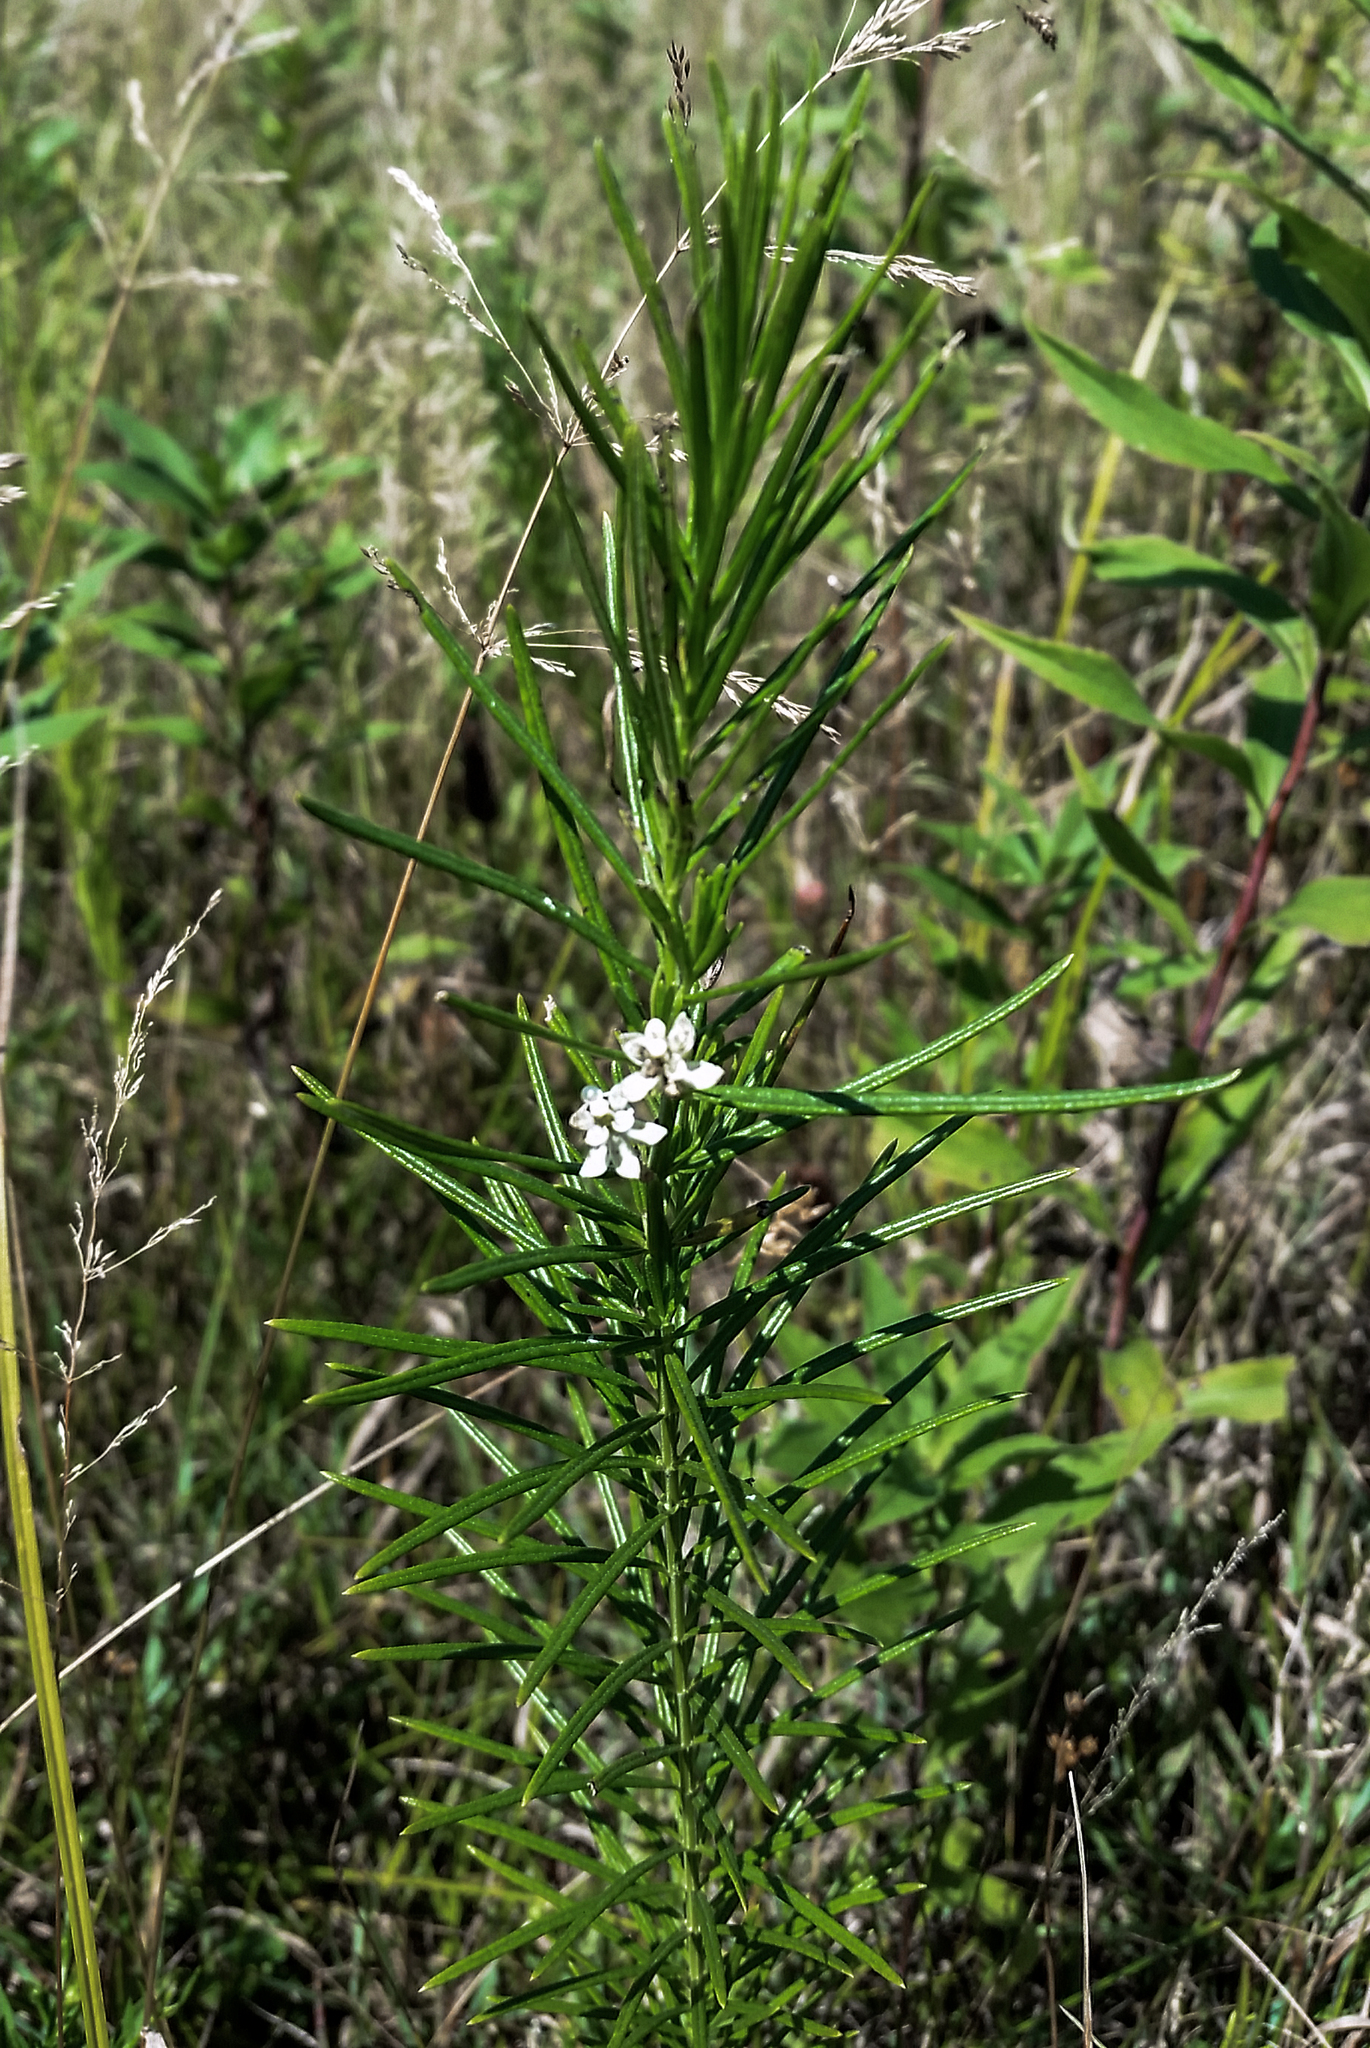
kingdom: Plantae
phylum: Tracheophyta
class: Magnoliopsida
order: Gentianales
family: Apocynaceae
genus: Asclepias
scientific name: Asclepias verticillata
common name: Eastern whorled milkweed
